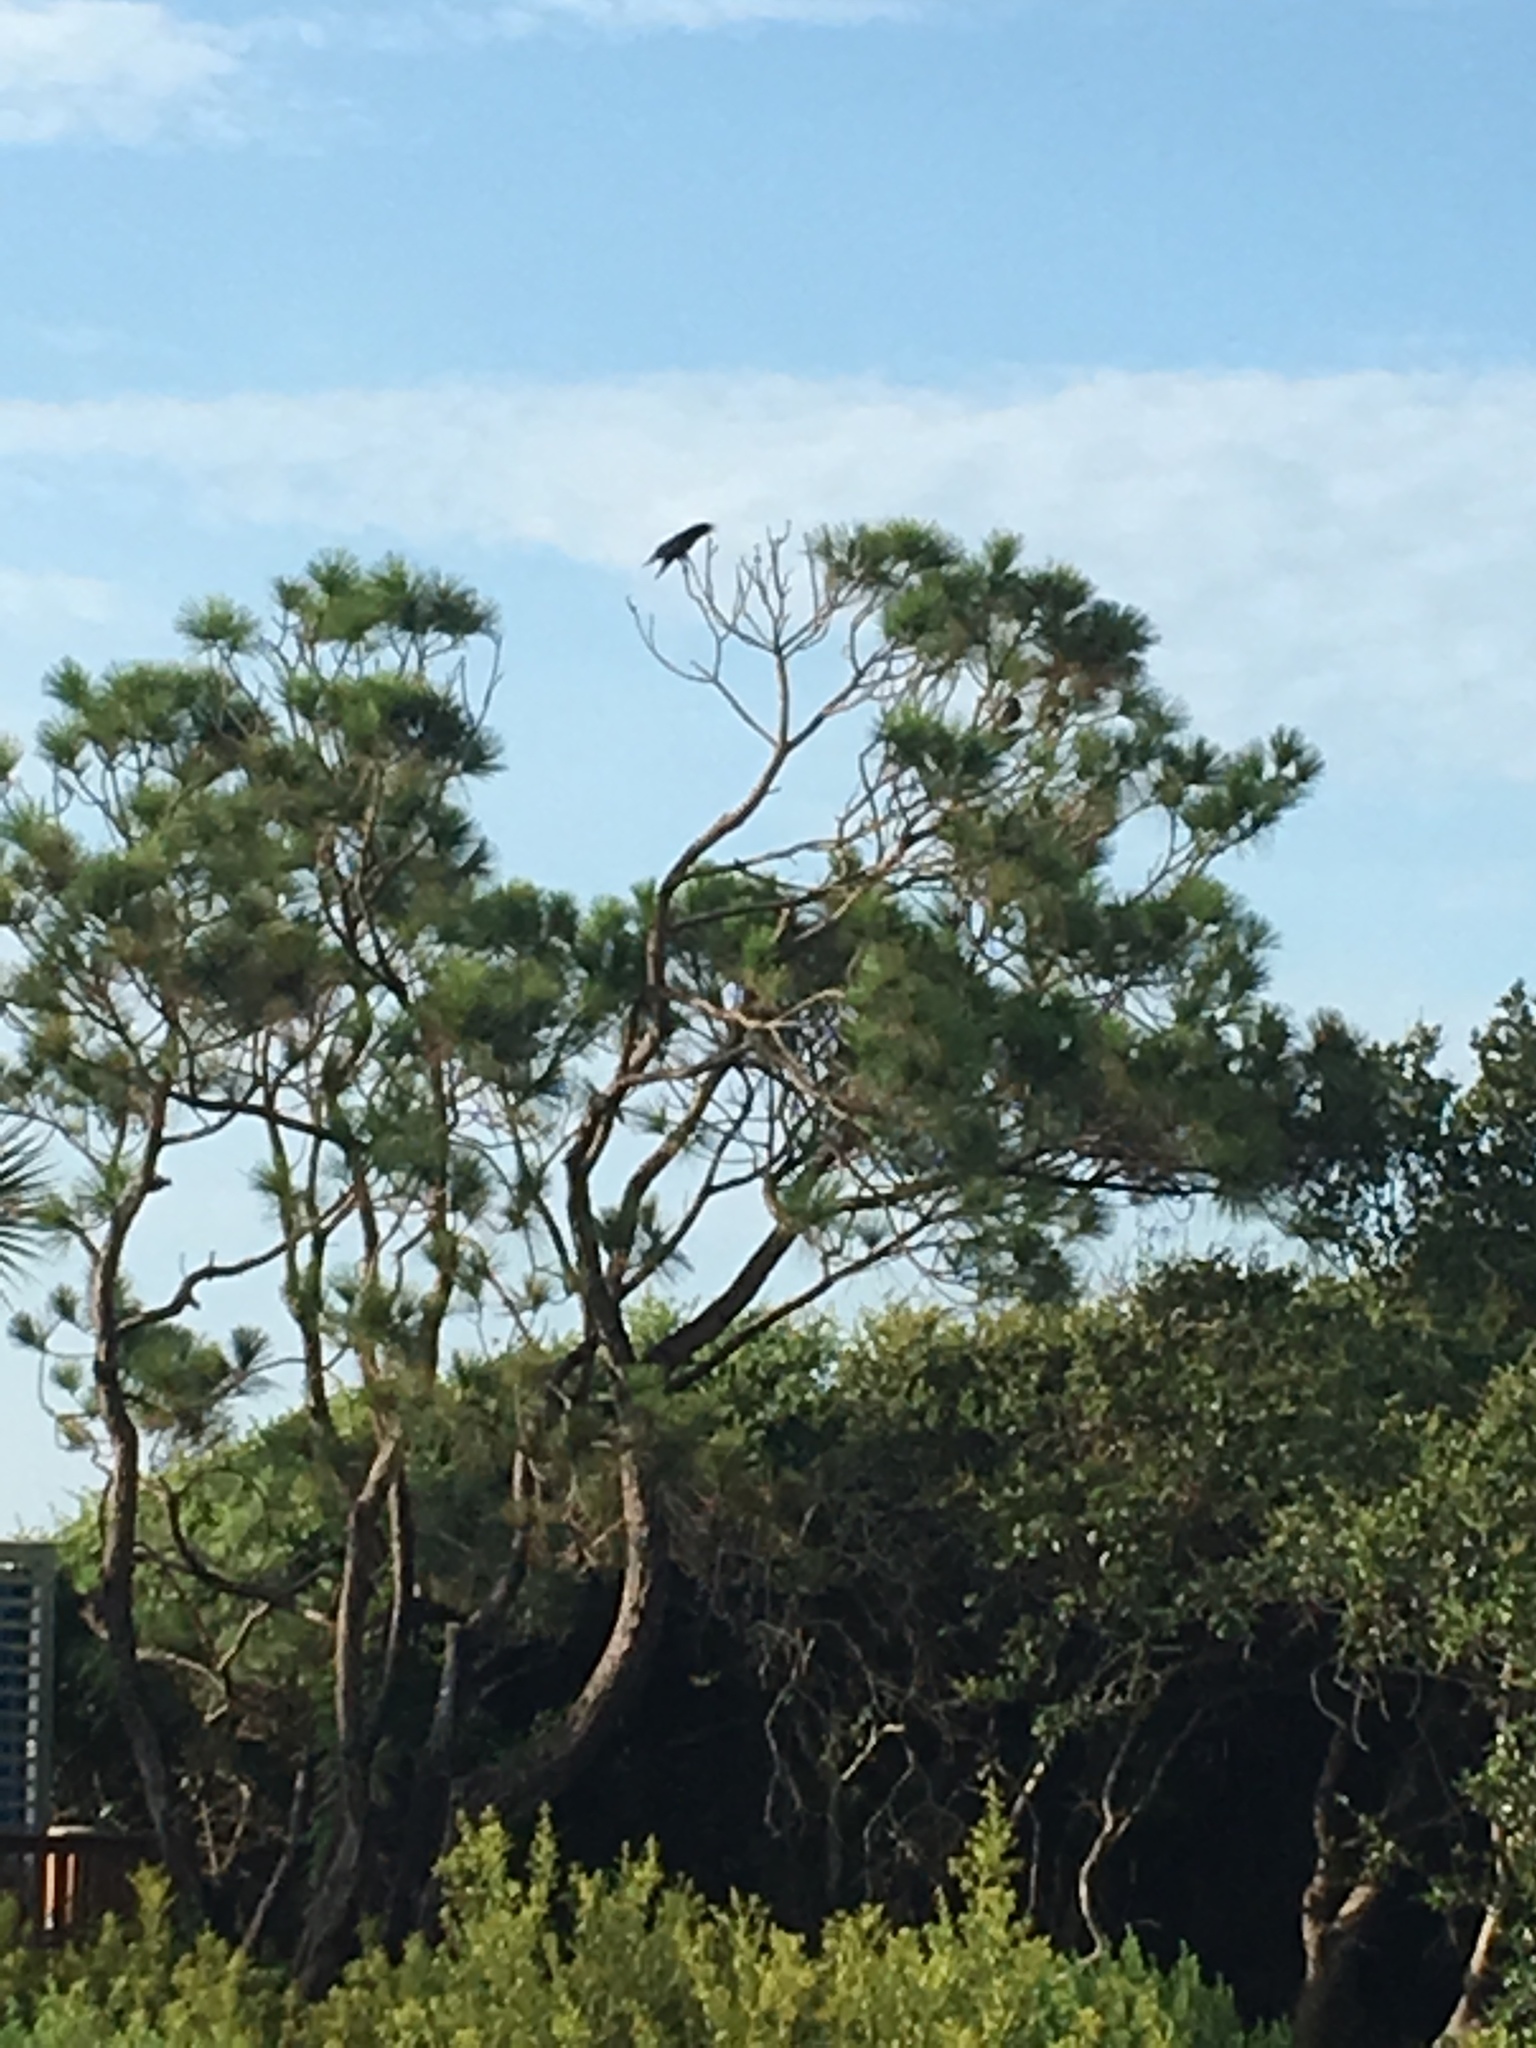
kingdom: Animalia
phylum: Chordata
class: Aves
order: Passeriformes
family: Corvidae
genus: Corvus
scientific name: Corvus brachyrhynchos
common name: American crow
